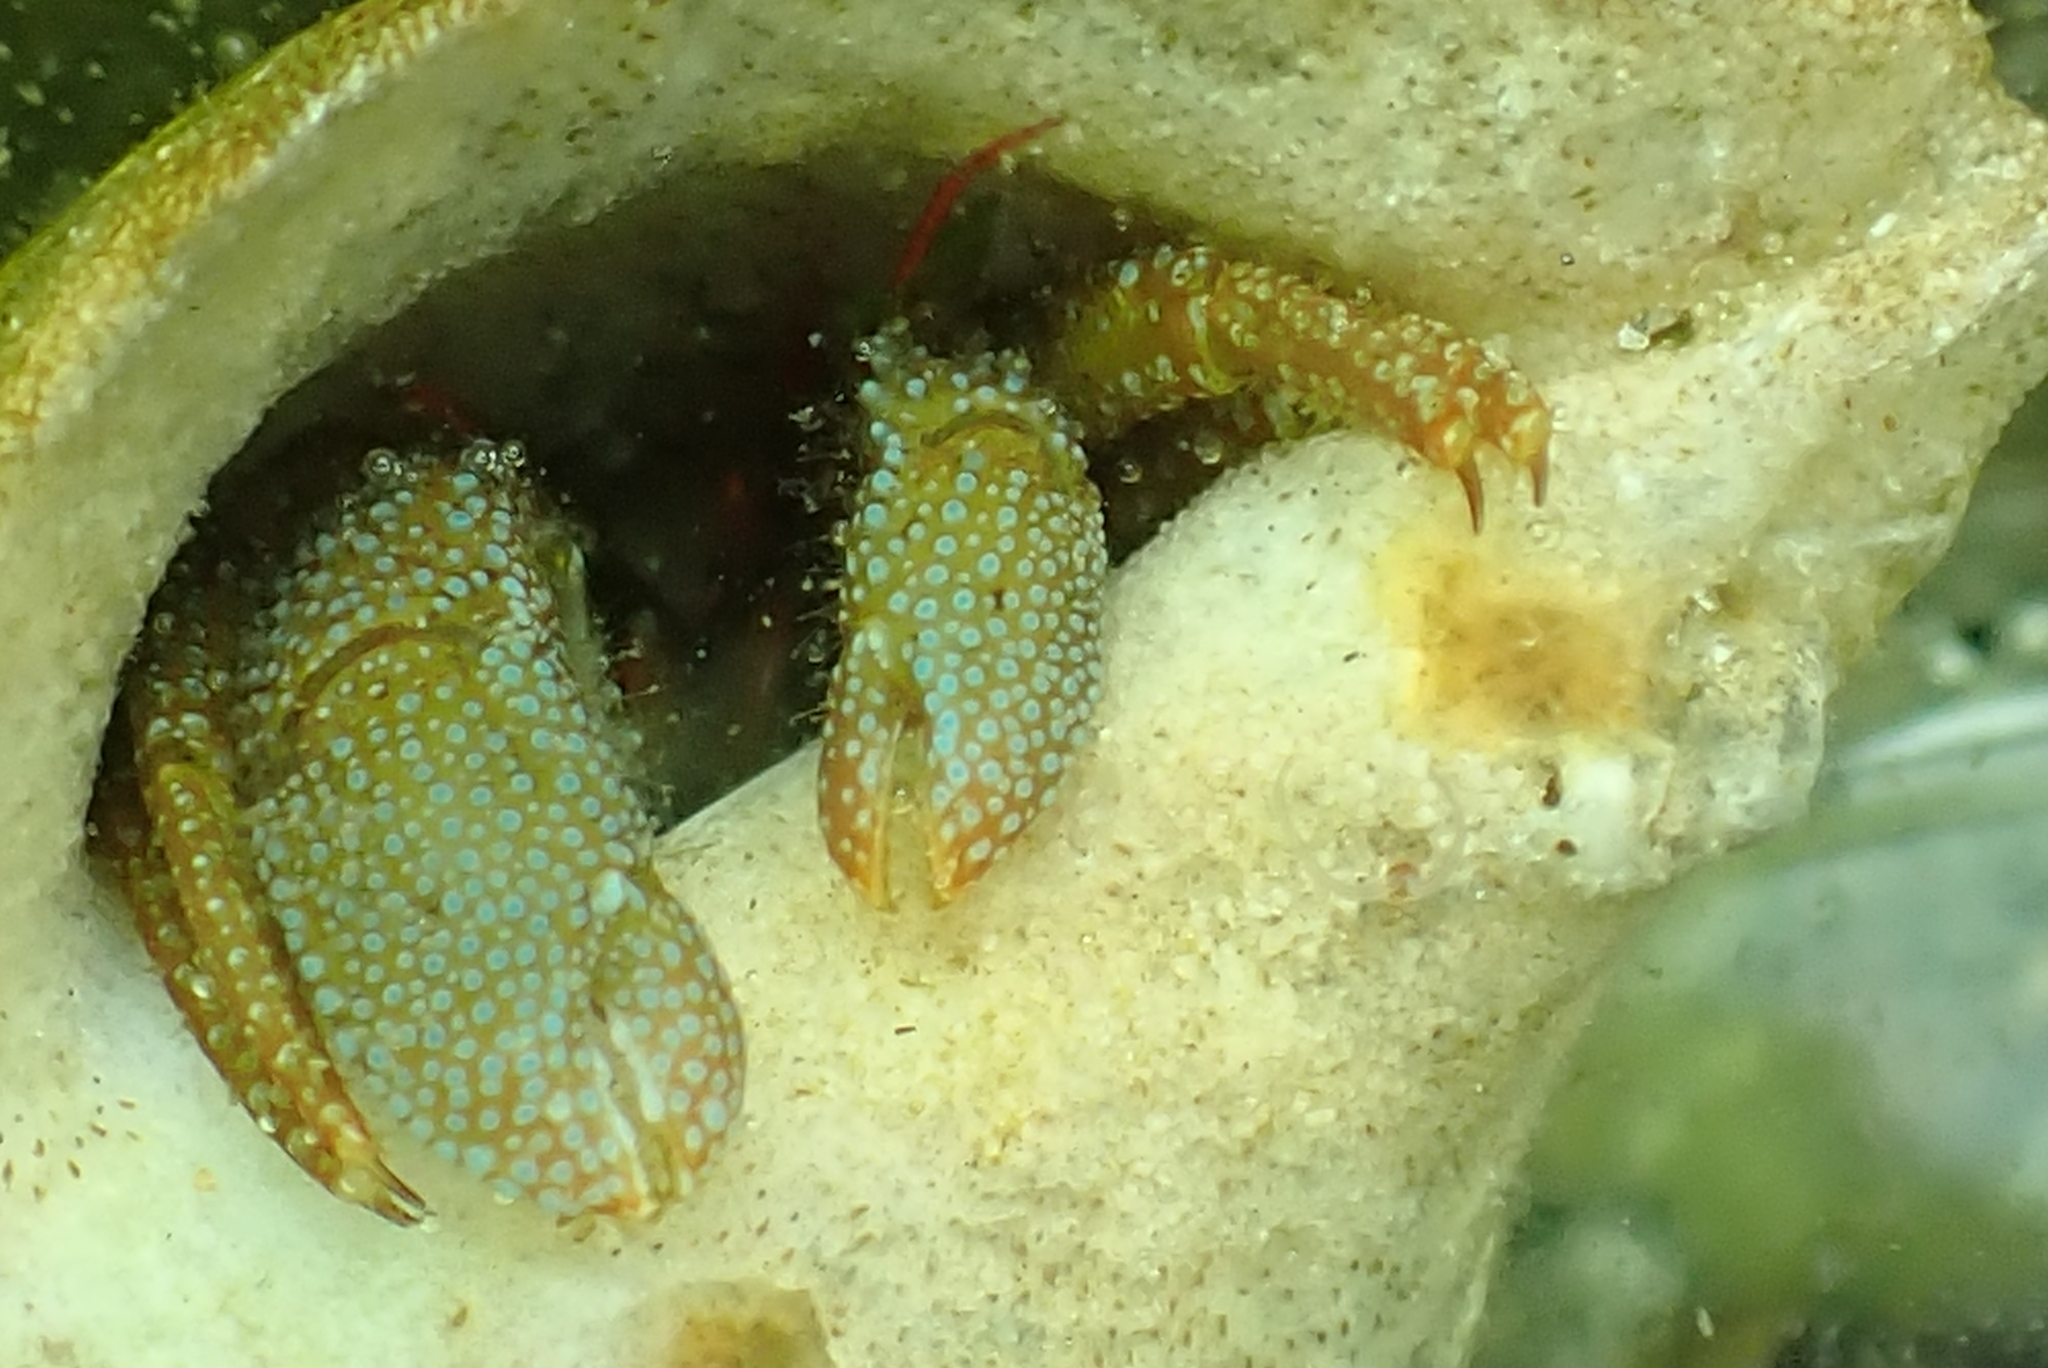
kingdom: Animalia
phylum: Arthropoda
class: Malacostraca
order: Decapoda
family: Paguridae
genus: Pagurus
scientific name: Pagurus granosimanus
